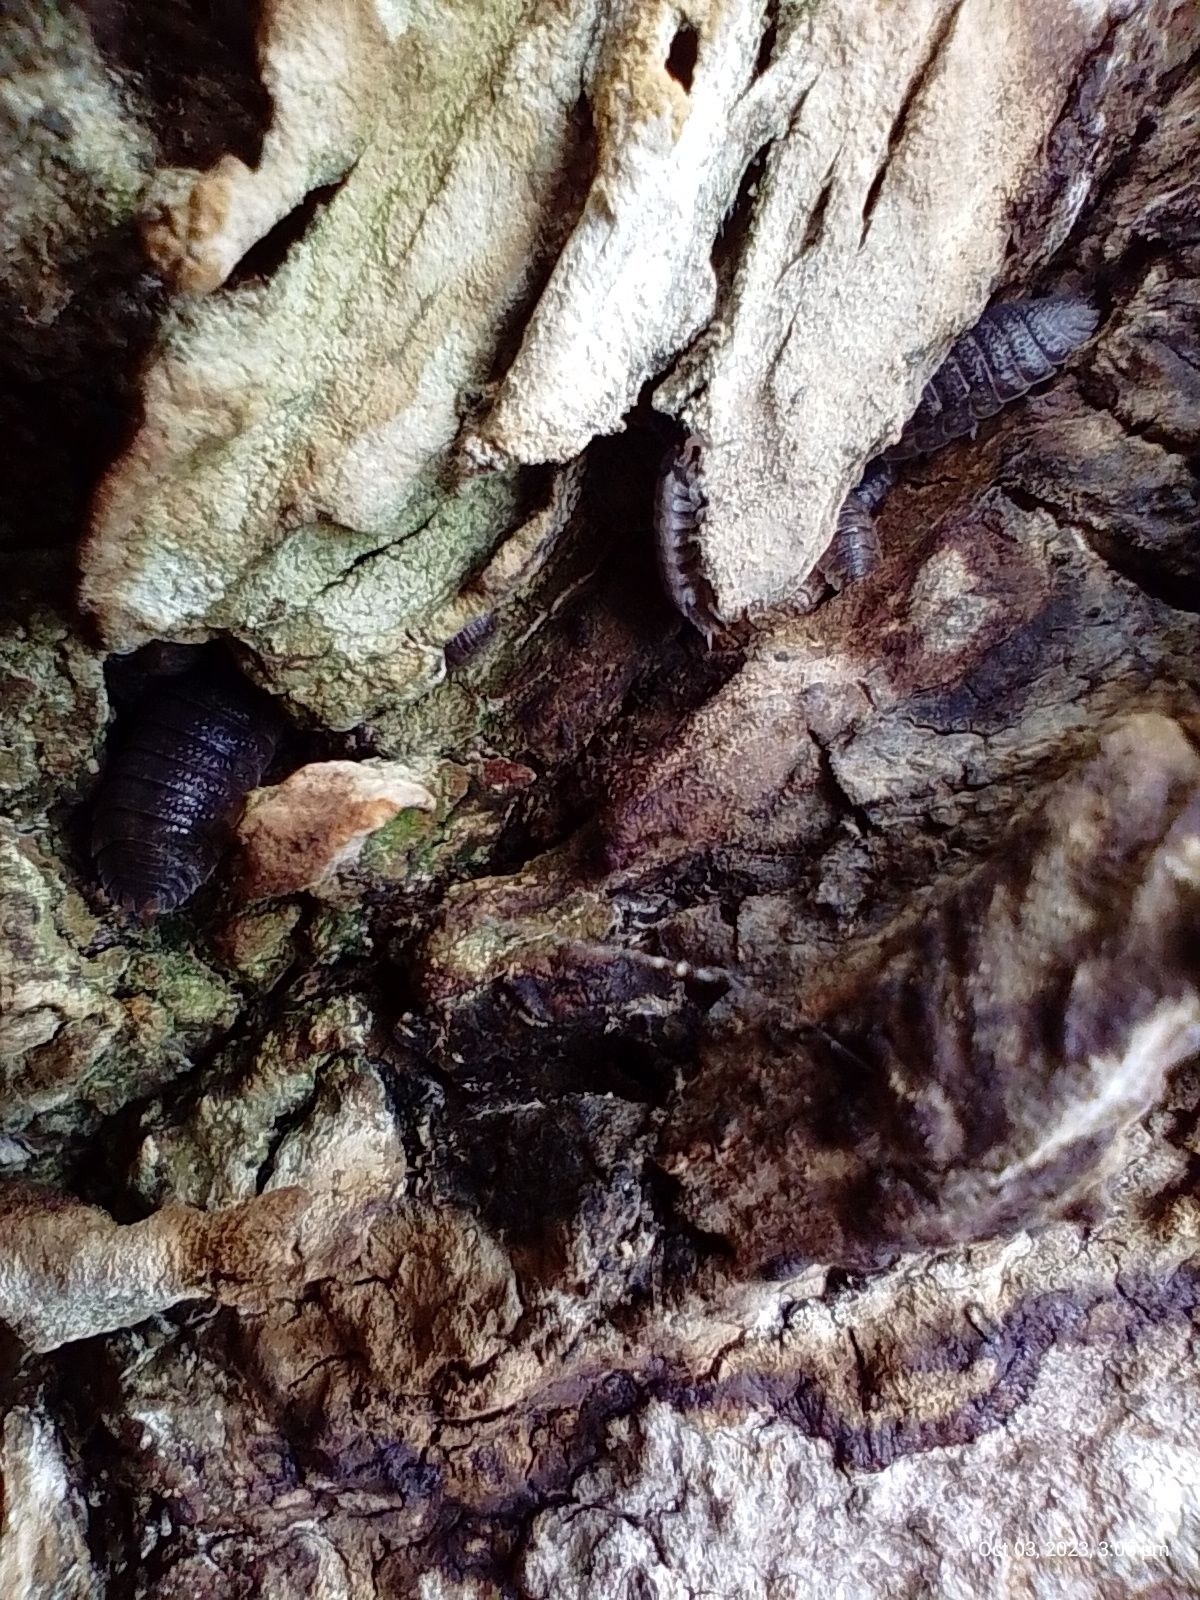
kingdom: Animalia
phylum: Arthropoda
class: Malacostraca
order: Isopoda
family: Porcellionidae
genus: Porcellio
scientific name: Porcellio scaber
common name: Common rough woodlouse
